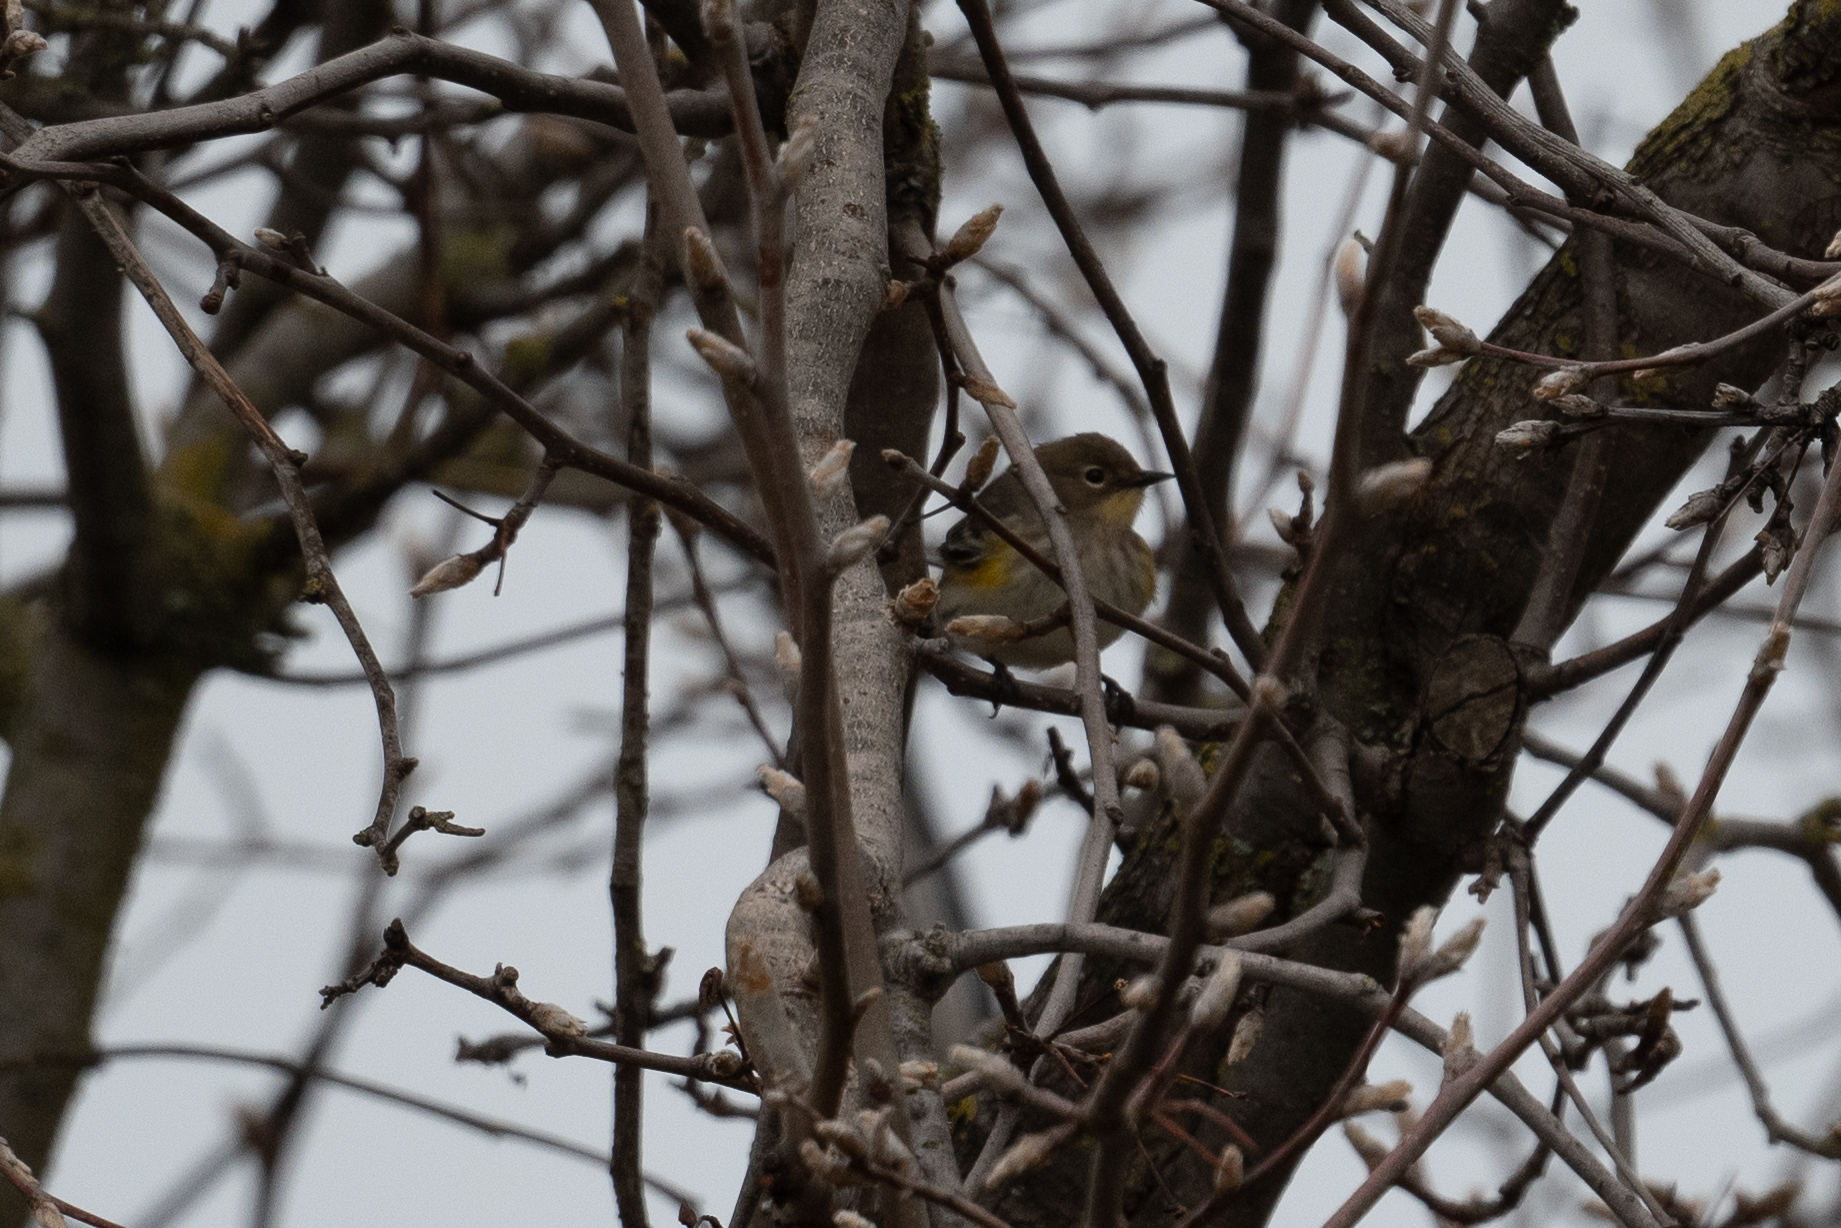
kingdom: Animalia
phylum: Chordata
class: Aves
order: Passeriformes
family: Parulidae
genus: Setophaga
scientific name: Setophaga coronata
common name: Myrtle warbler
